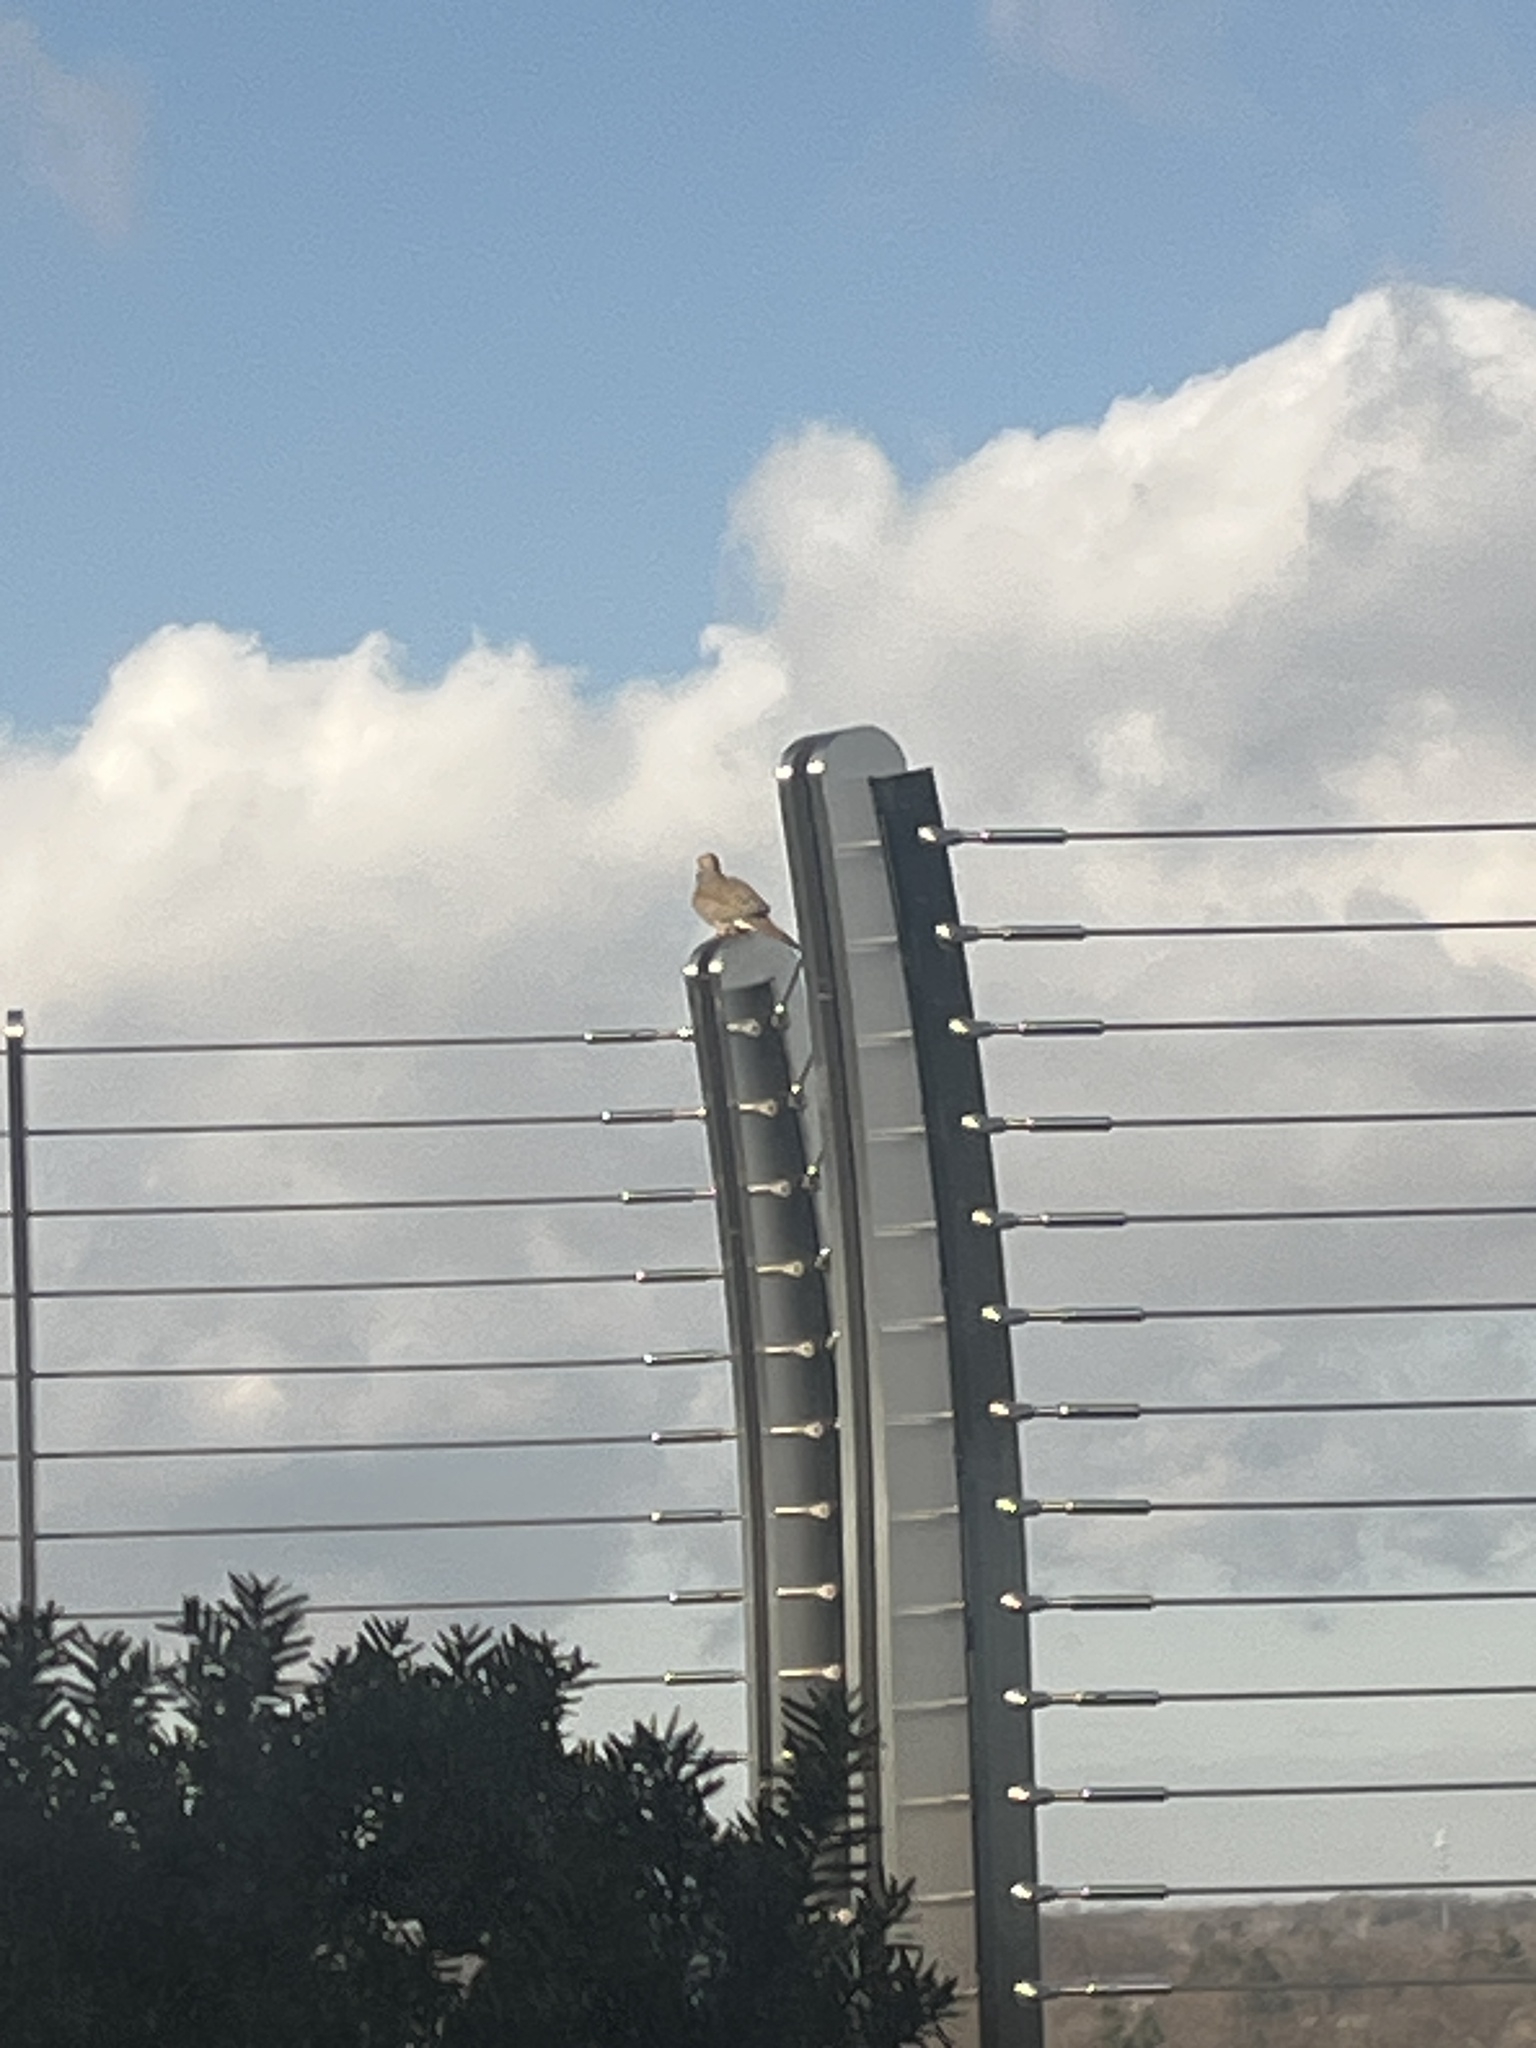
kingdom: Animalia
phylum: Chordata
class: Aves
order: Columbiformes
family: Columbidae
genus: Zenaida
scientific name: Zenaida macroura
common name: Mourning dove
